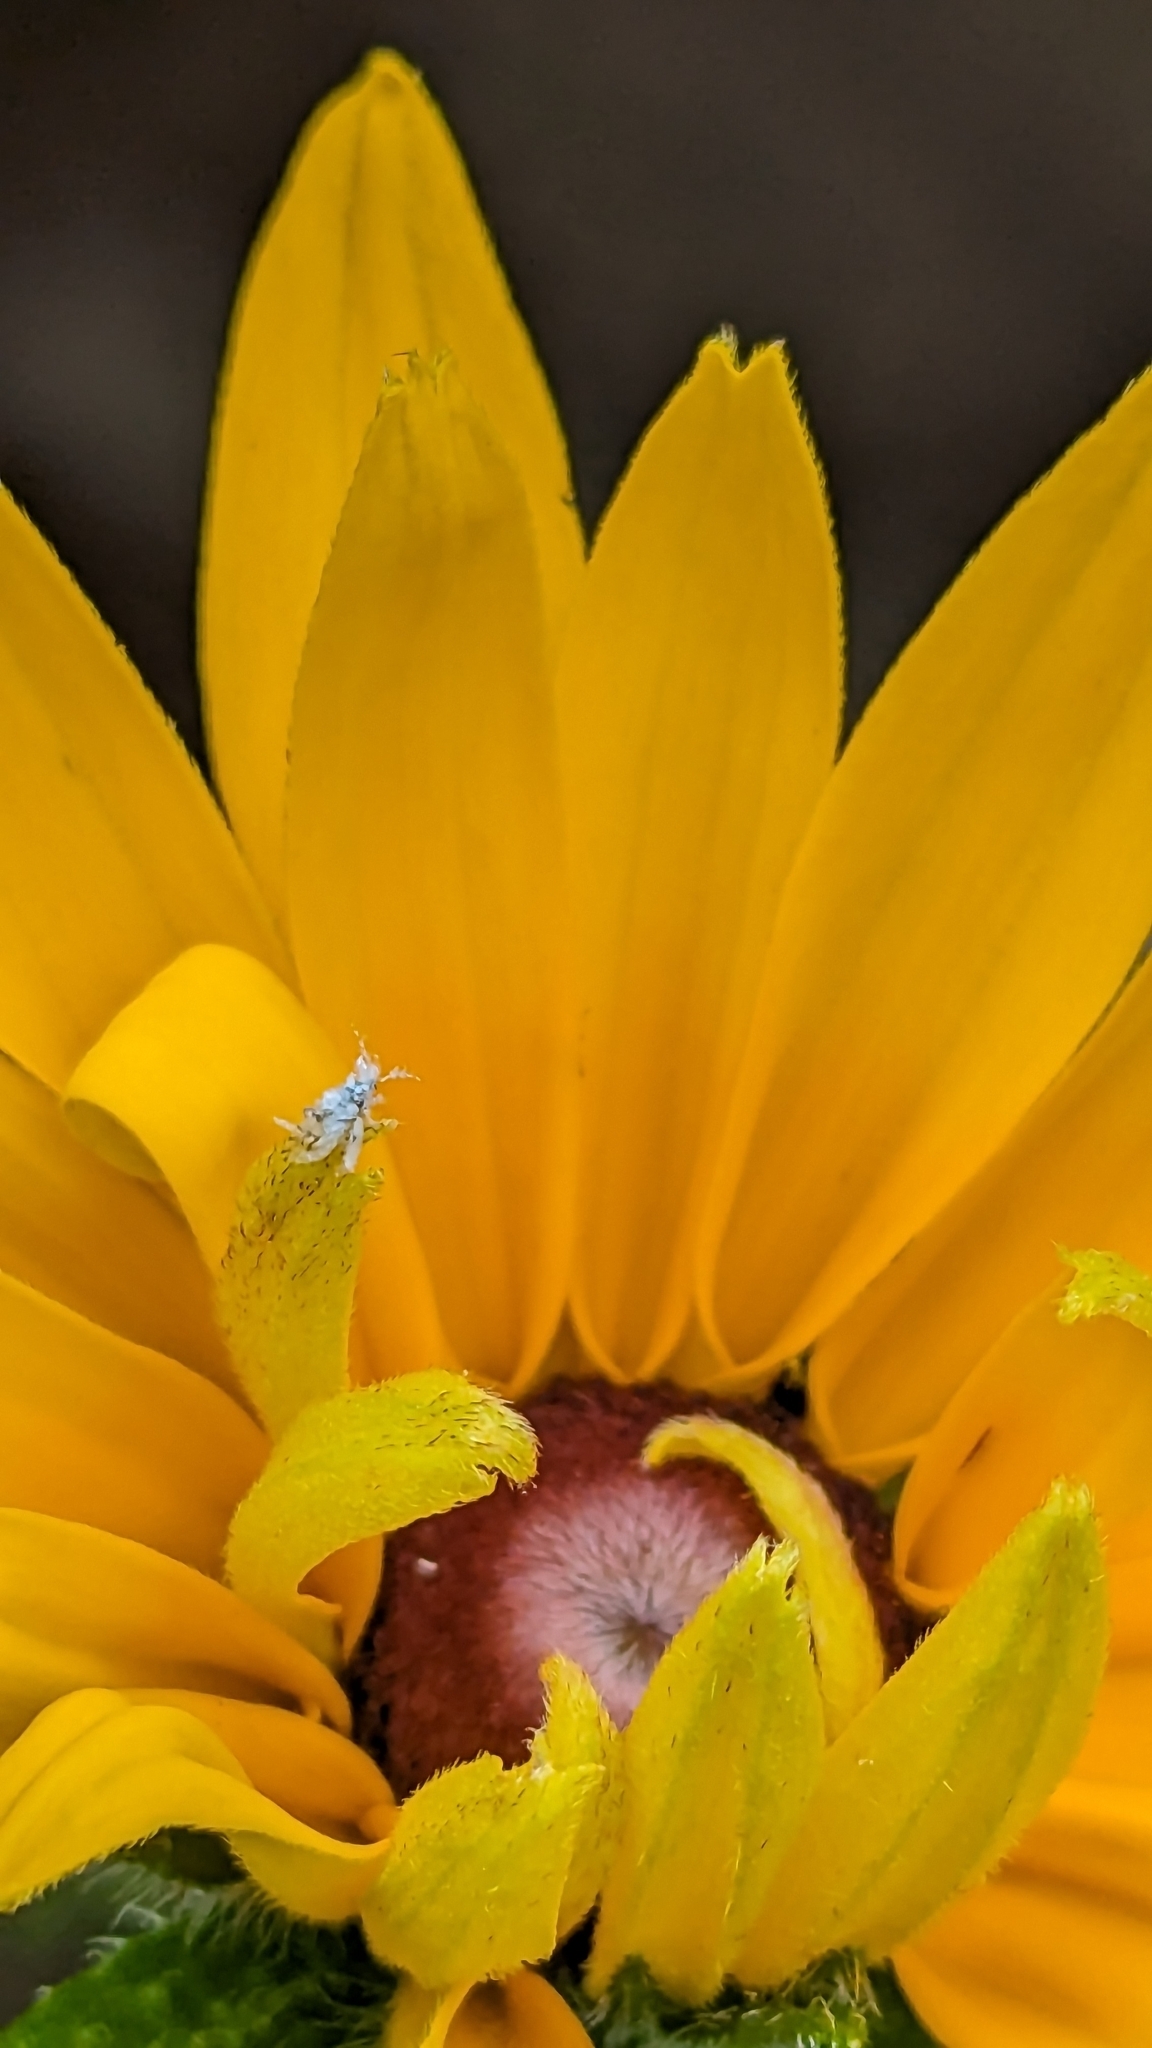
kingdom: Animalia
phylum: Arthropoda
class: Insecta
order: Hemiptera
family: Aphididae
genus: Shivaphis
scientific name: Shivaphis celti
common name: Asian wooly hackberry aphid
